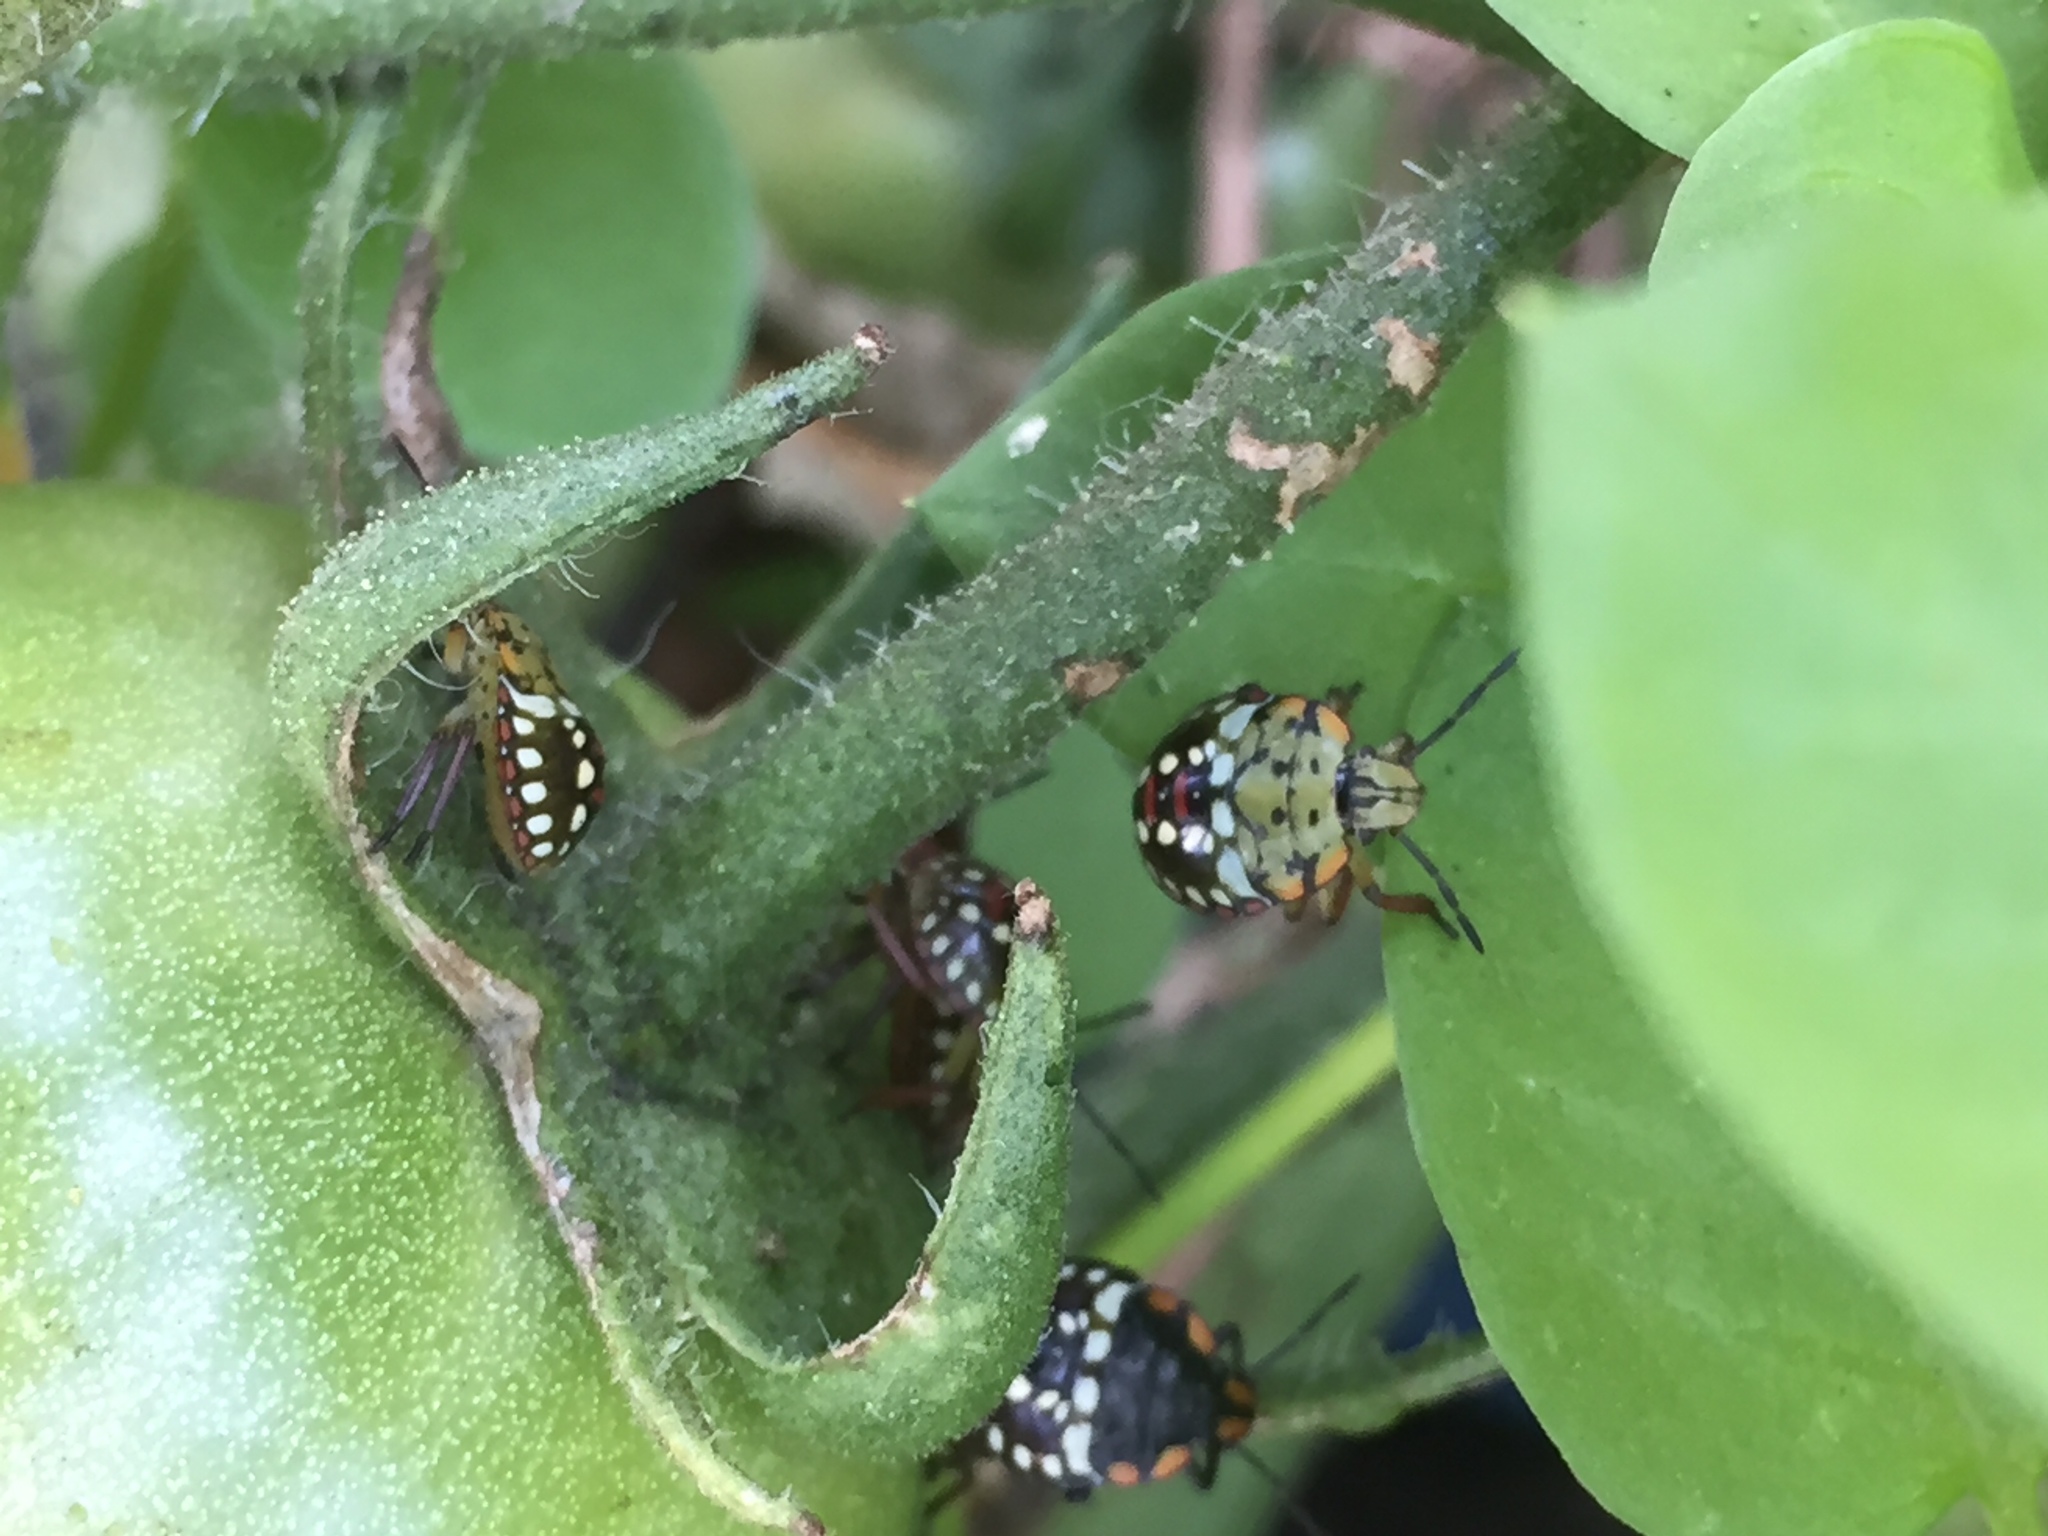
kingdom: Animalia
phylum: Arthropoda
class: Insecta
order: Hemiptera
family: Pentatomidae
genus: Nezara
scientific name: Nezara viridula
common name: Southern green stink bug
